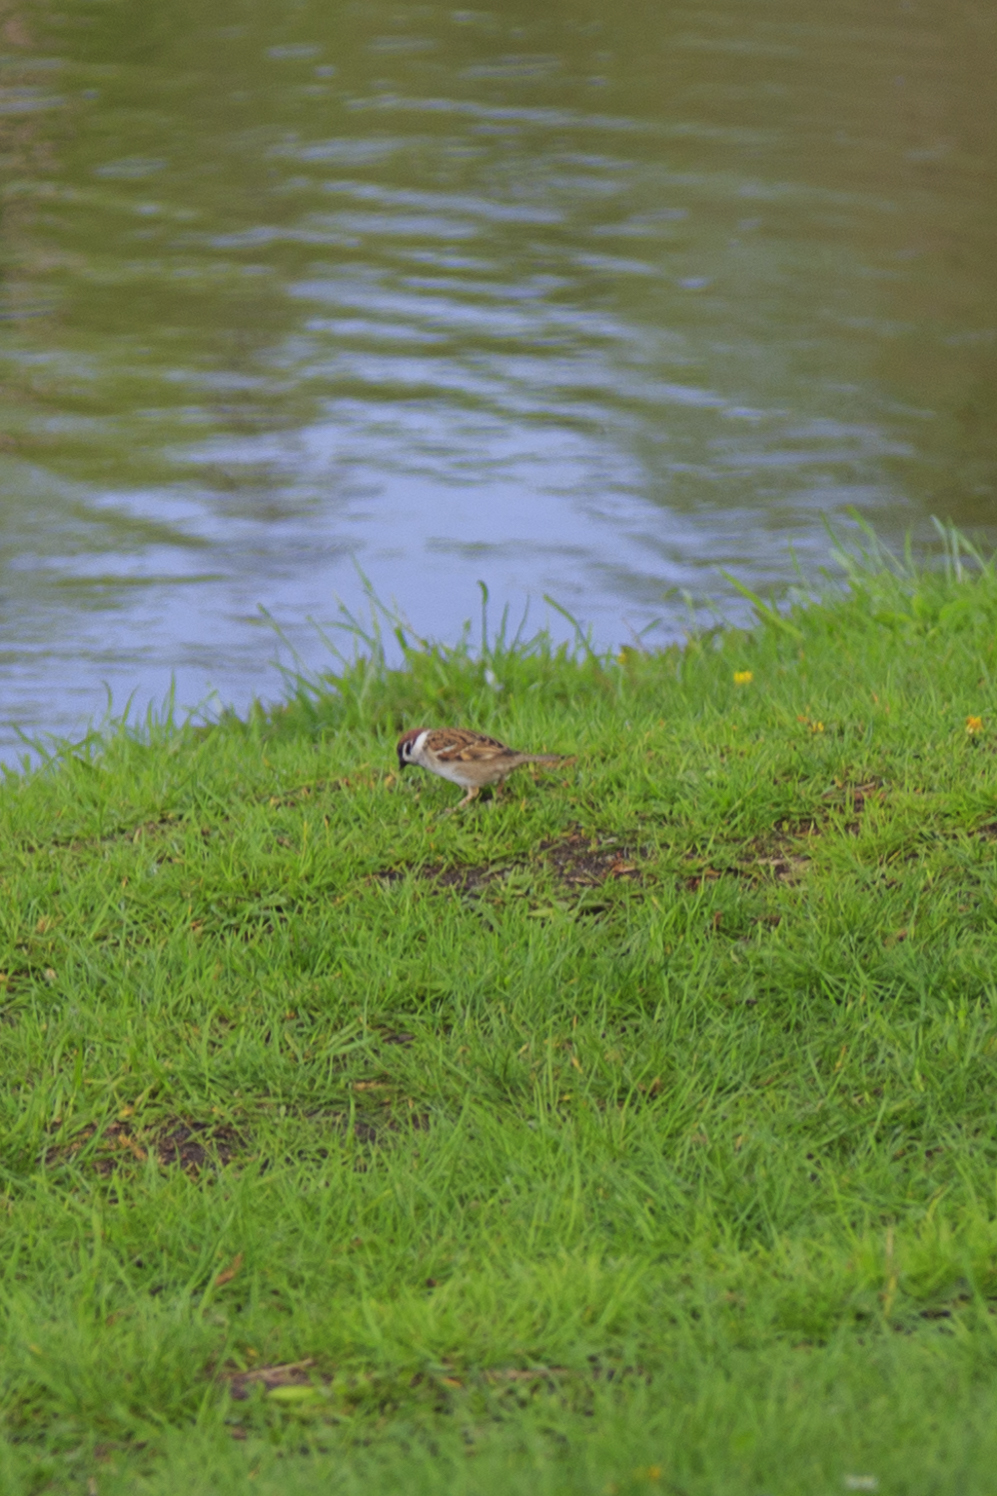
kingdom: Animalia
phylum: Chordata
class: Aves
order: Passeriformes
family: Passeridae
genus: Passer
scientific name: Passer montanus
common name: Eurasian tree sparrow
